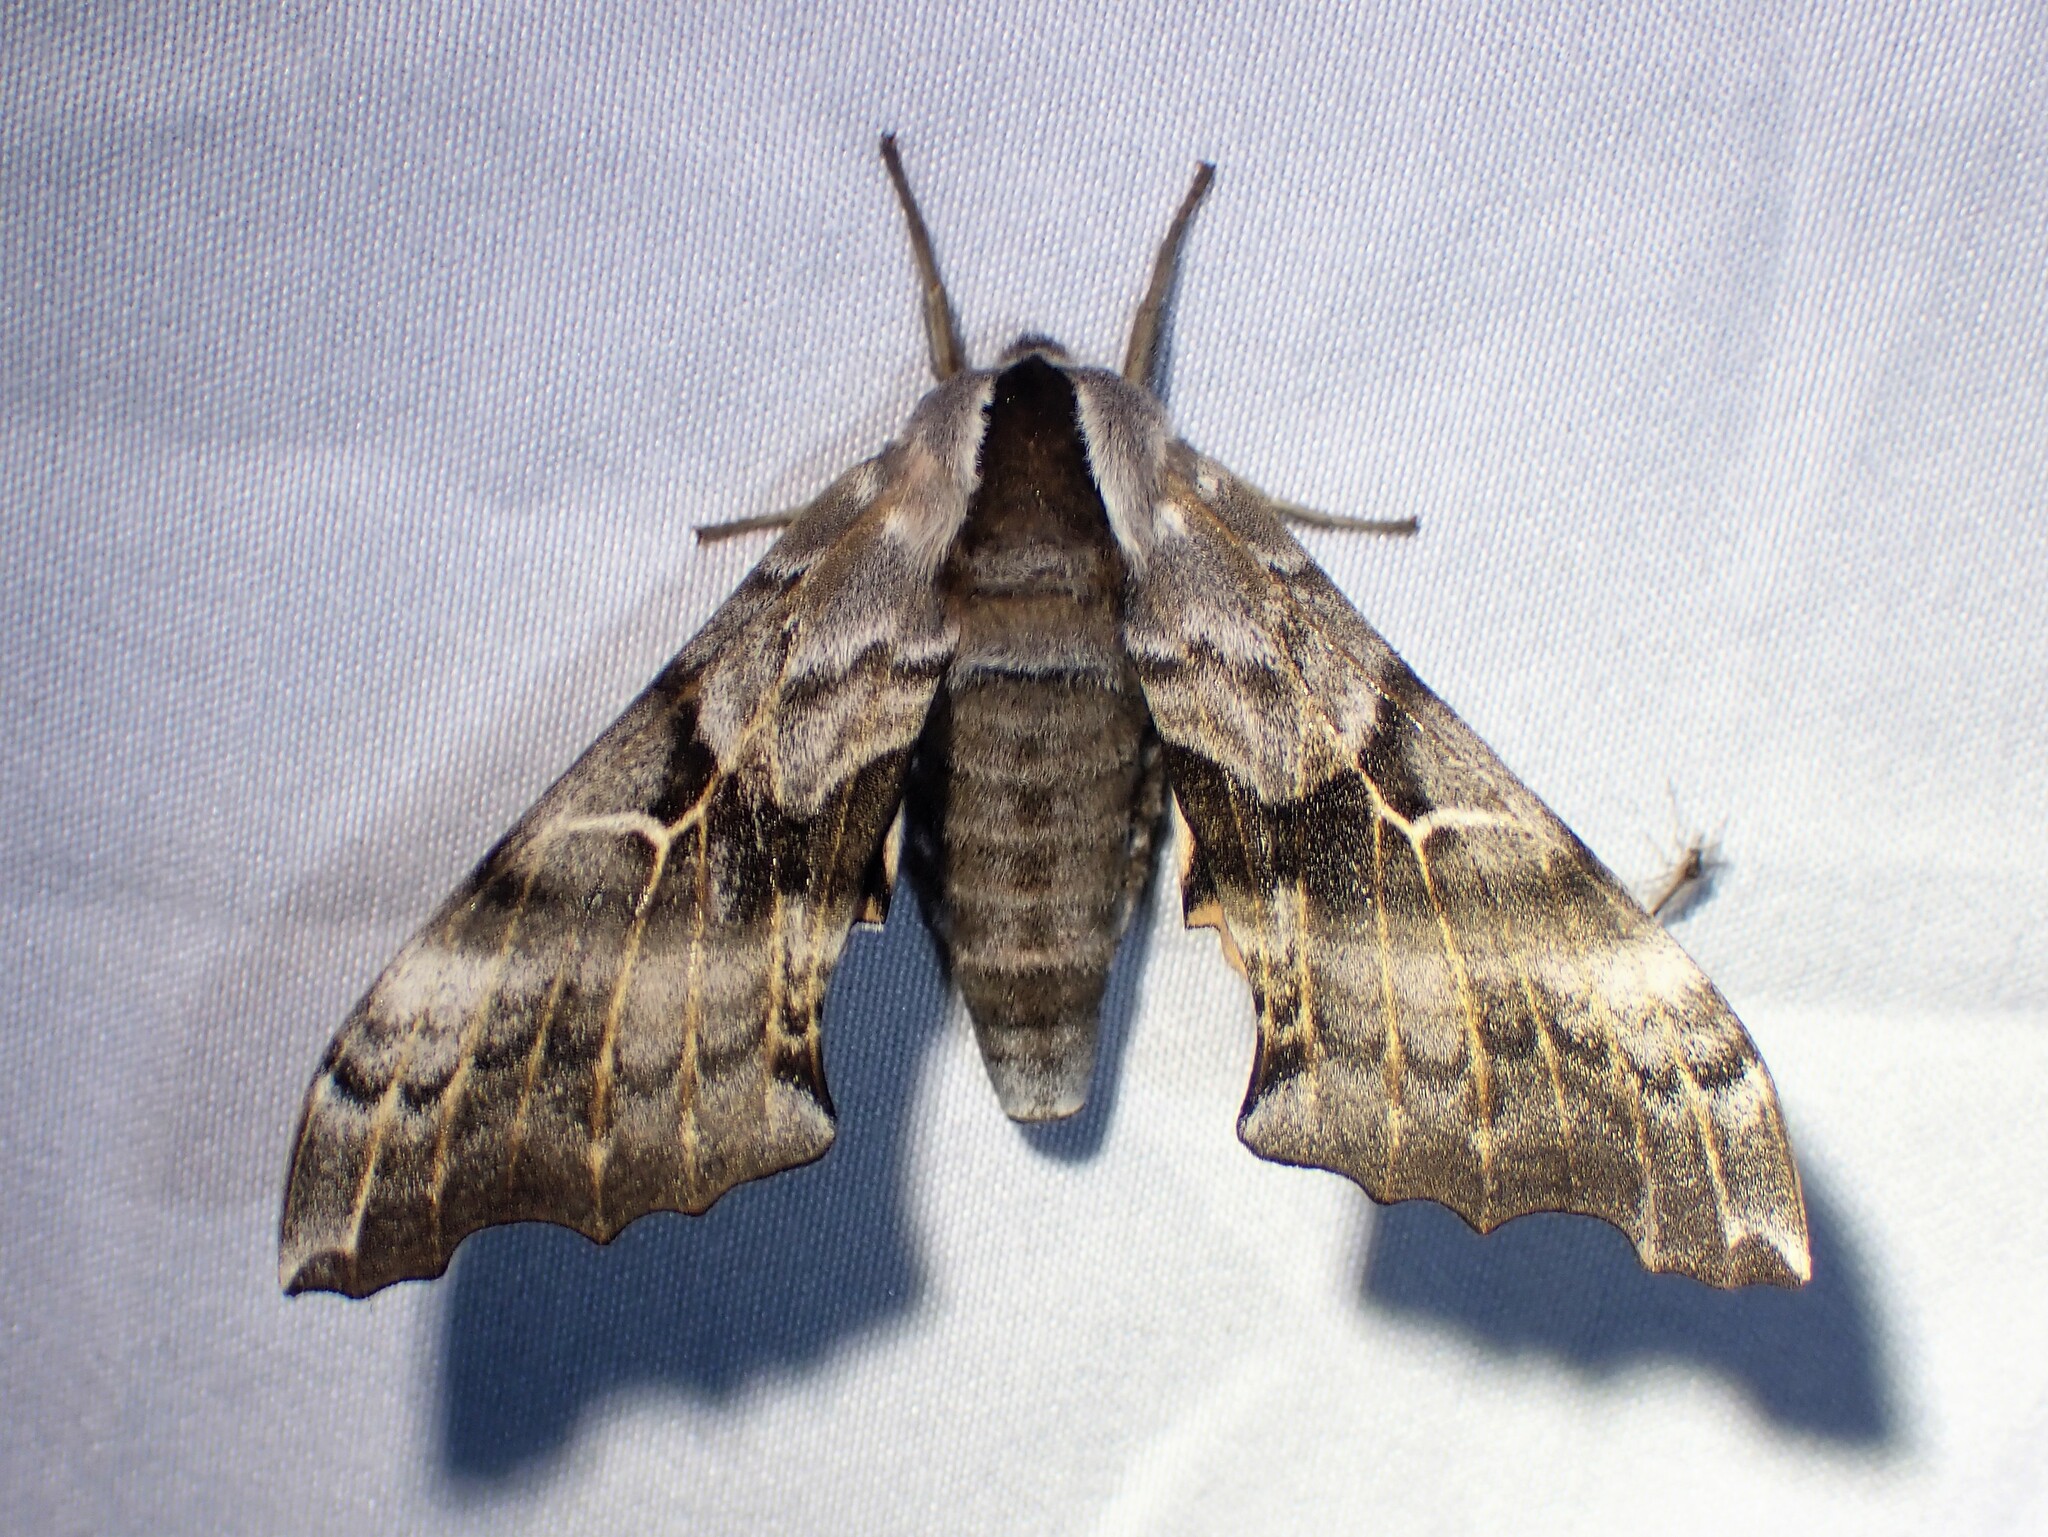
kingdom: Animalia
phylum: Arthropoda
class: Insecta
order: Lepidoptera
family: Sphingidae
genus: Smerinthus
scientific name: Smerinthus cerisyi
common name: Cerisy's sphinx moth
